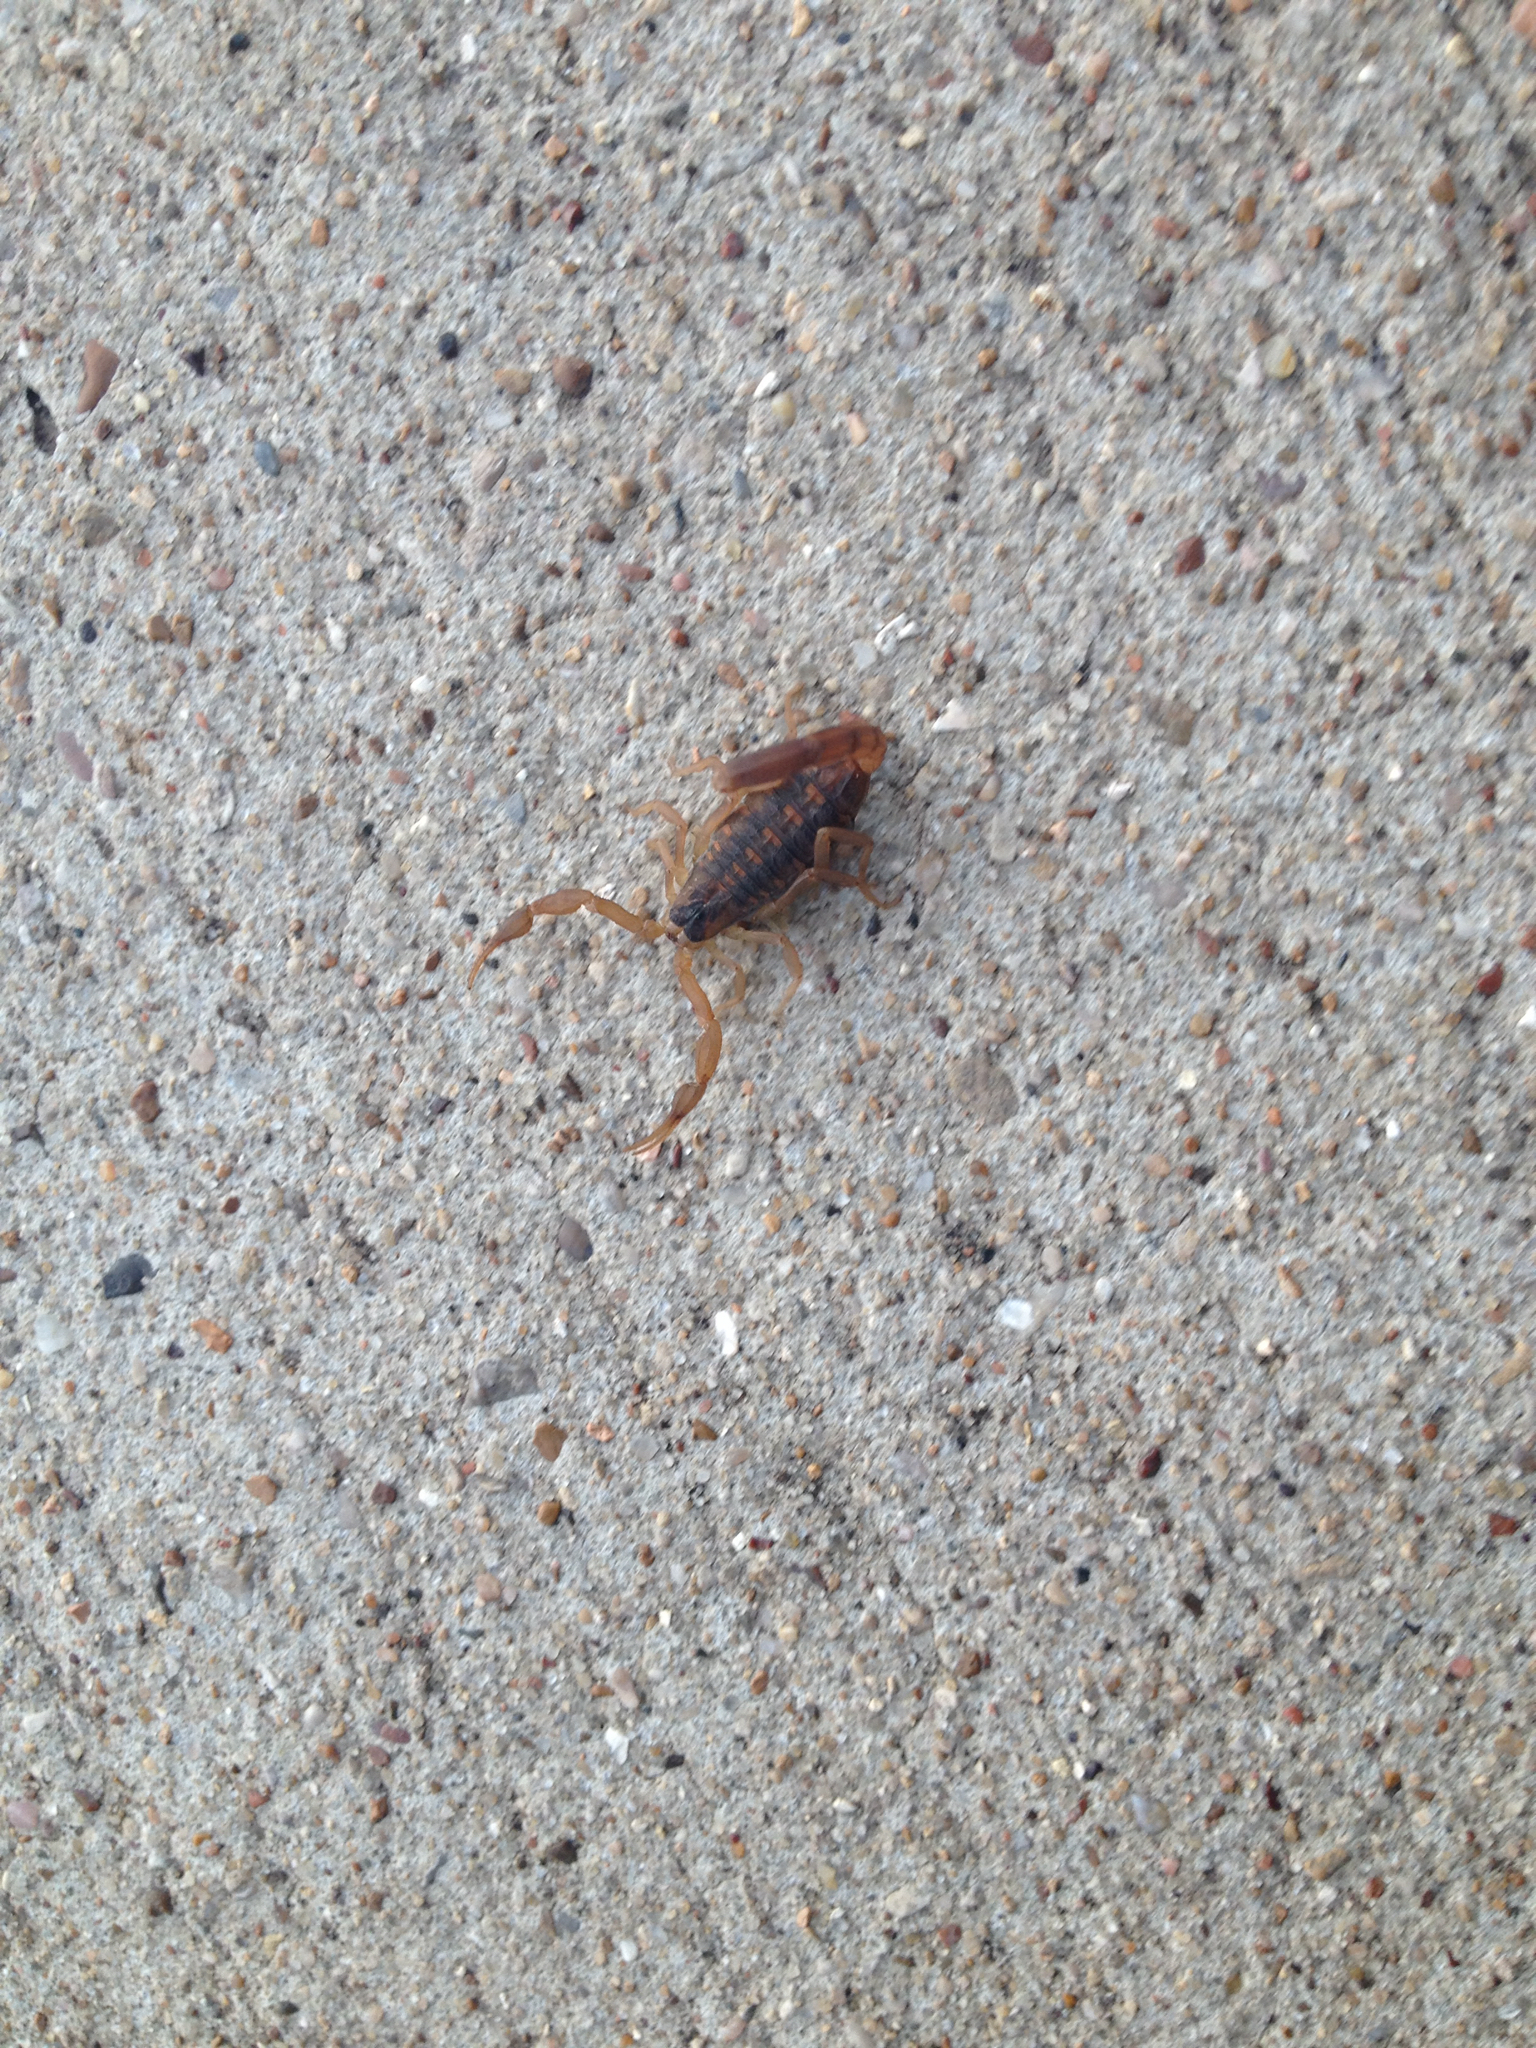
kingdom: Animalia
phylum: Arthropoda
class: Arachnida
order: Scorpiones
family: Buthidae
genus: Centruroides
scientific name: Centruroides vittatus
